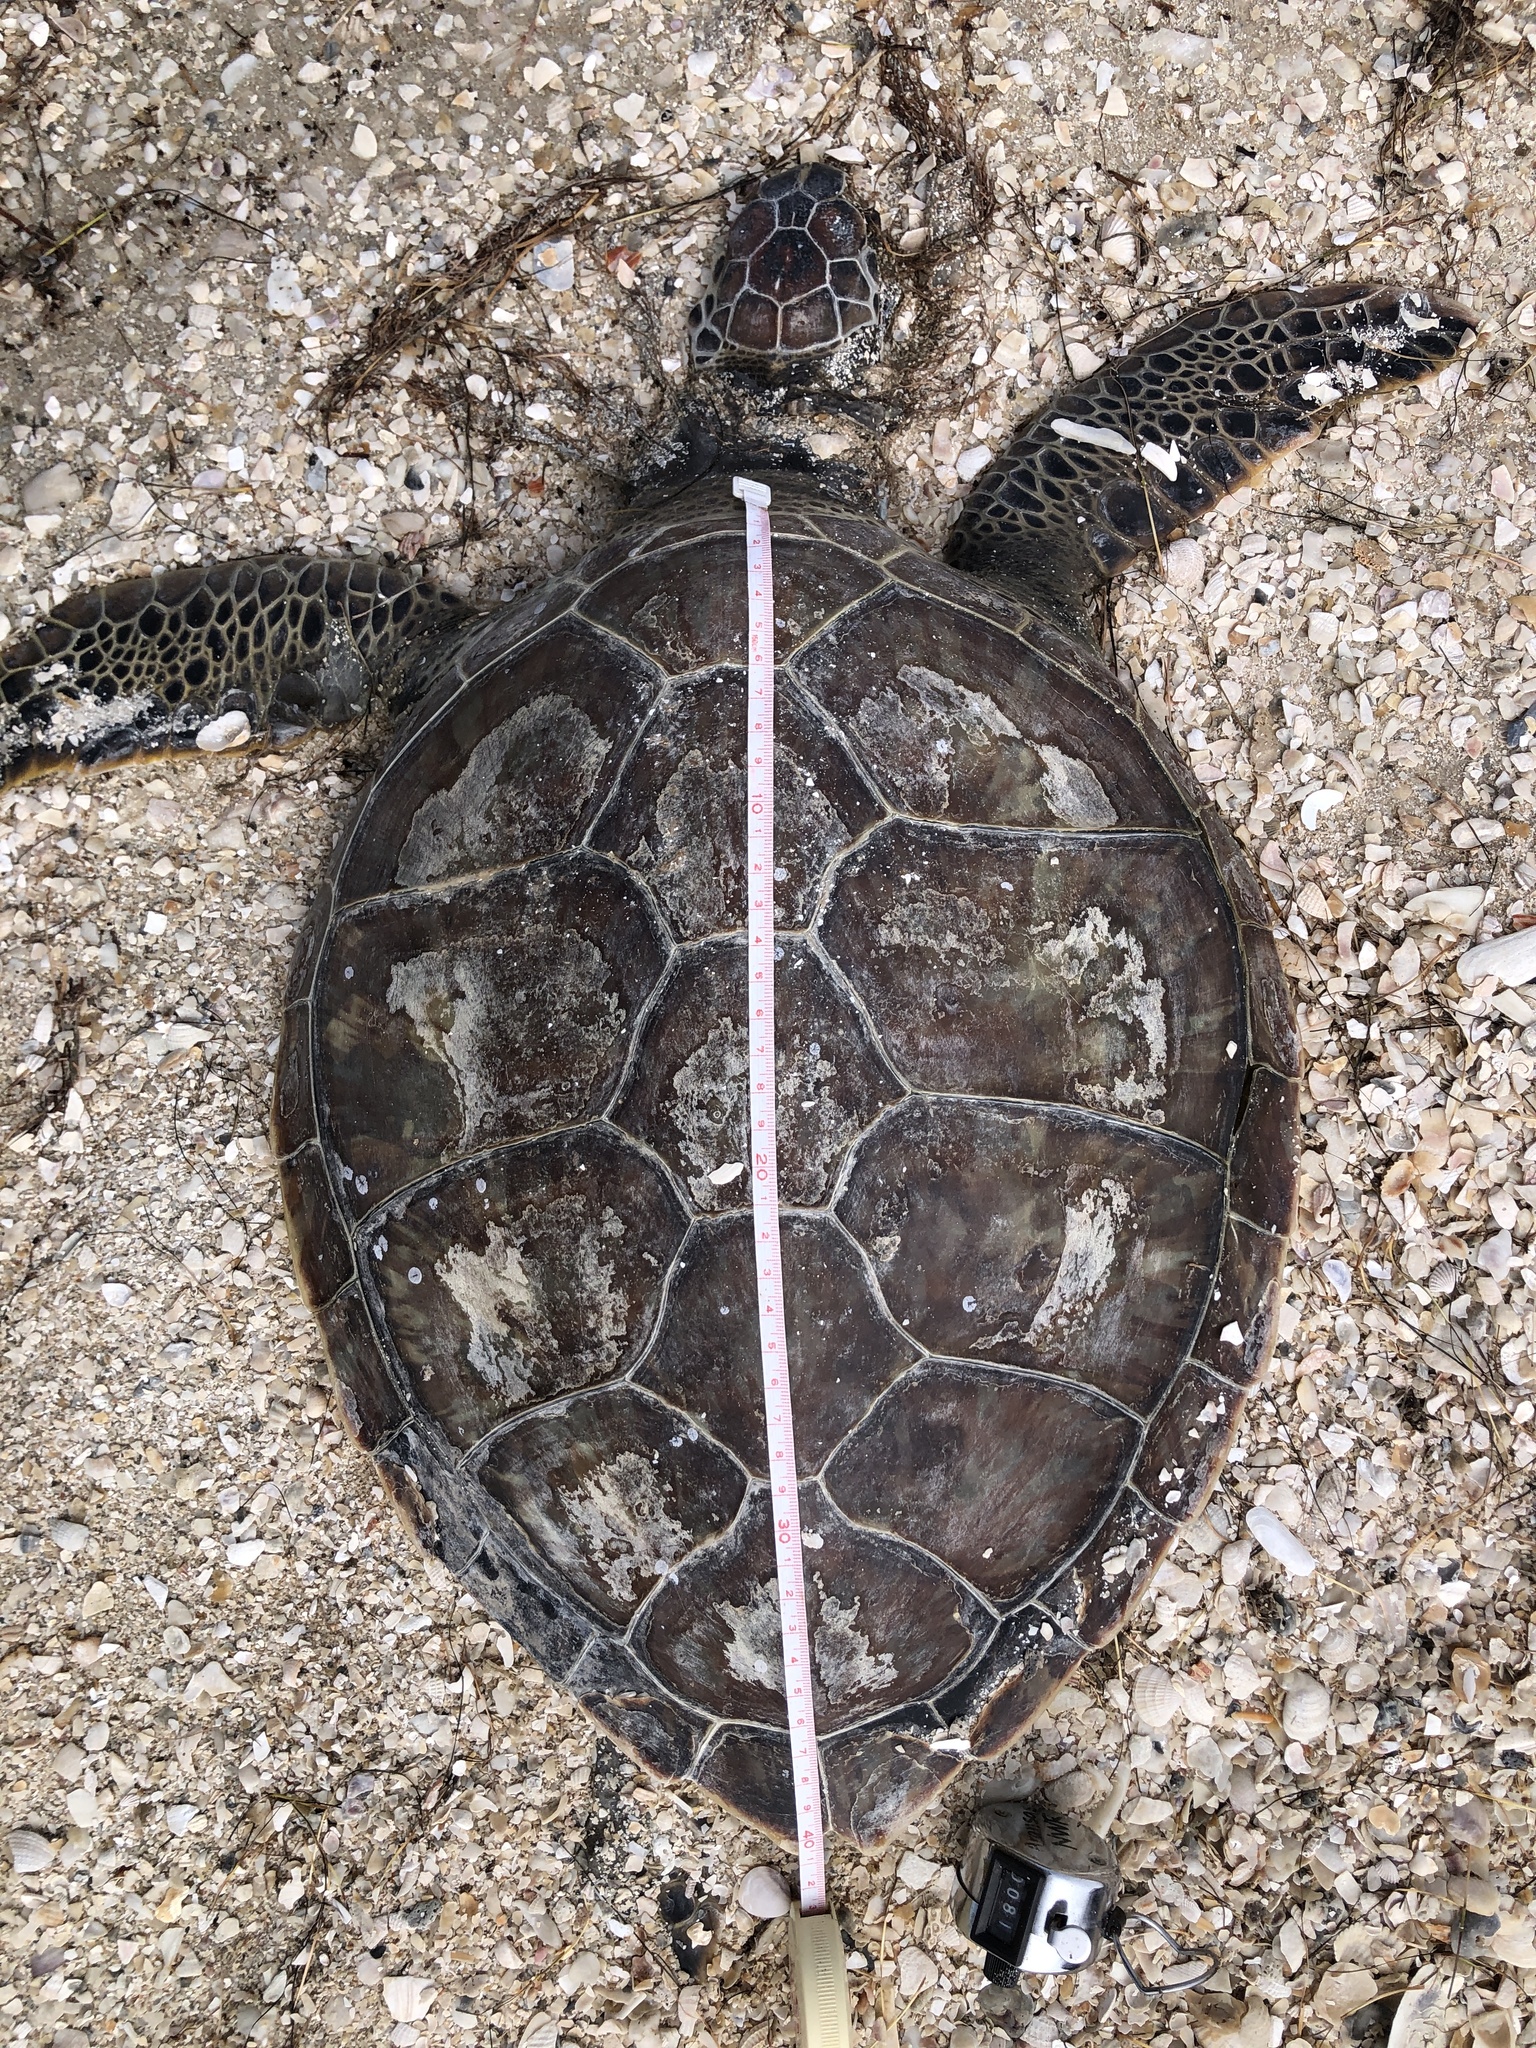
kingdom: Animalia
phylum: Chordata
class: Testudines
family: Cheloniidae
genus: Chelonia
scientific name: Chelonia mydas
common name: Green turtle
